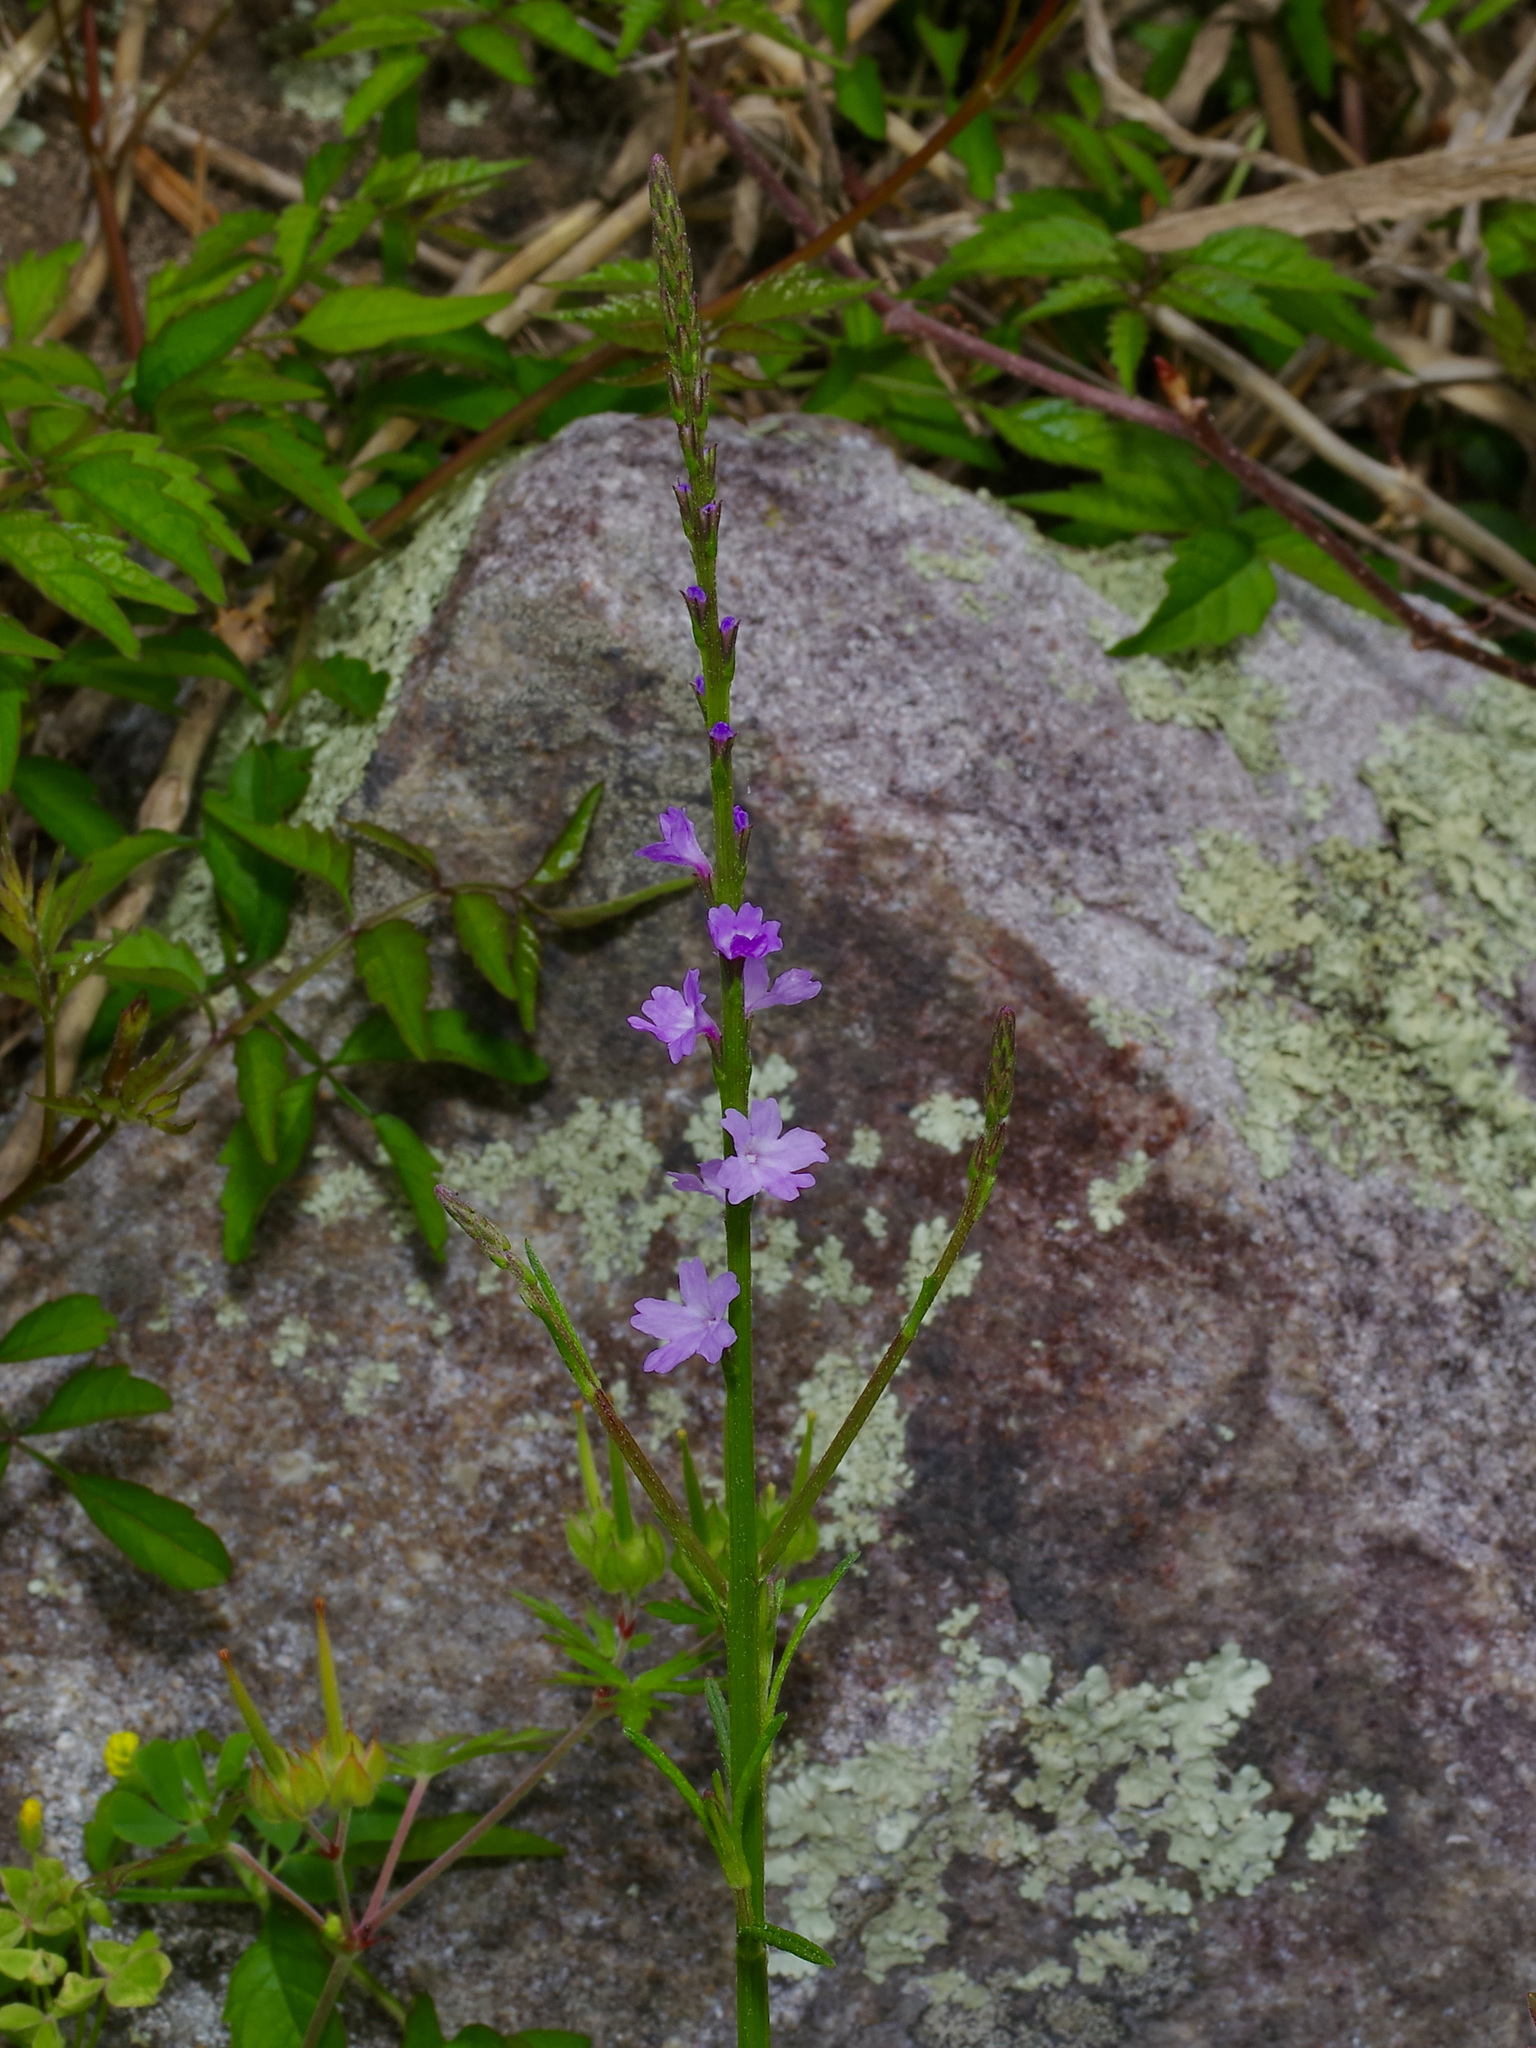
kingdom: Plantae
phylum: Tracheophyta
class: Magnoliopsida
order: Lamiales
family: Verbenaceae
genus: Verbena
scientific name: Verbena halei
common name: Texas vervain
